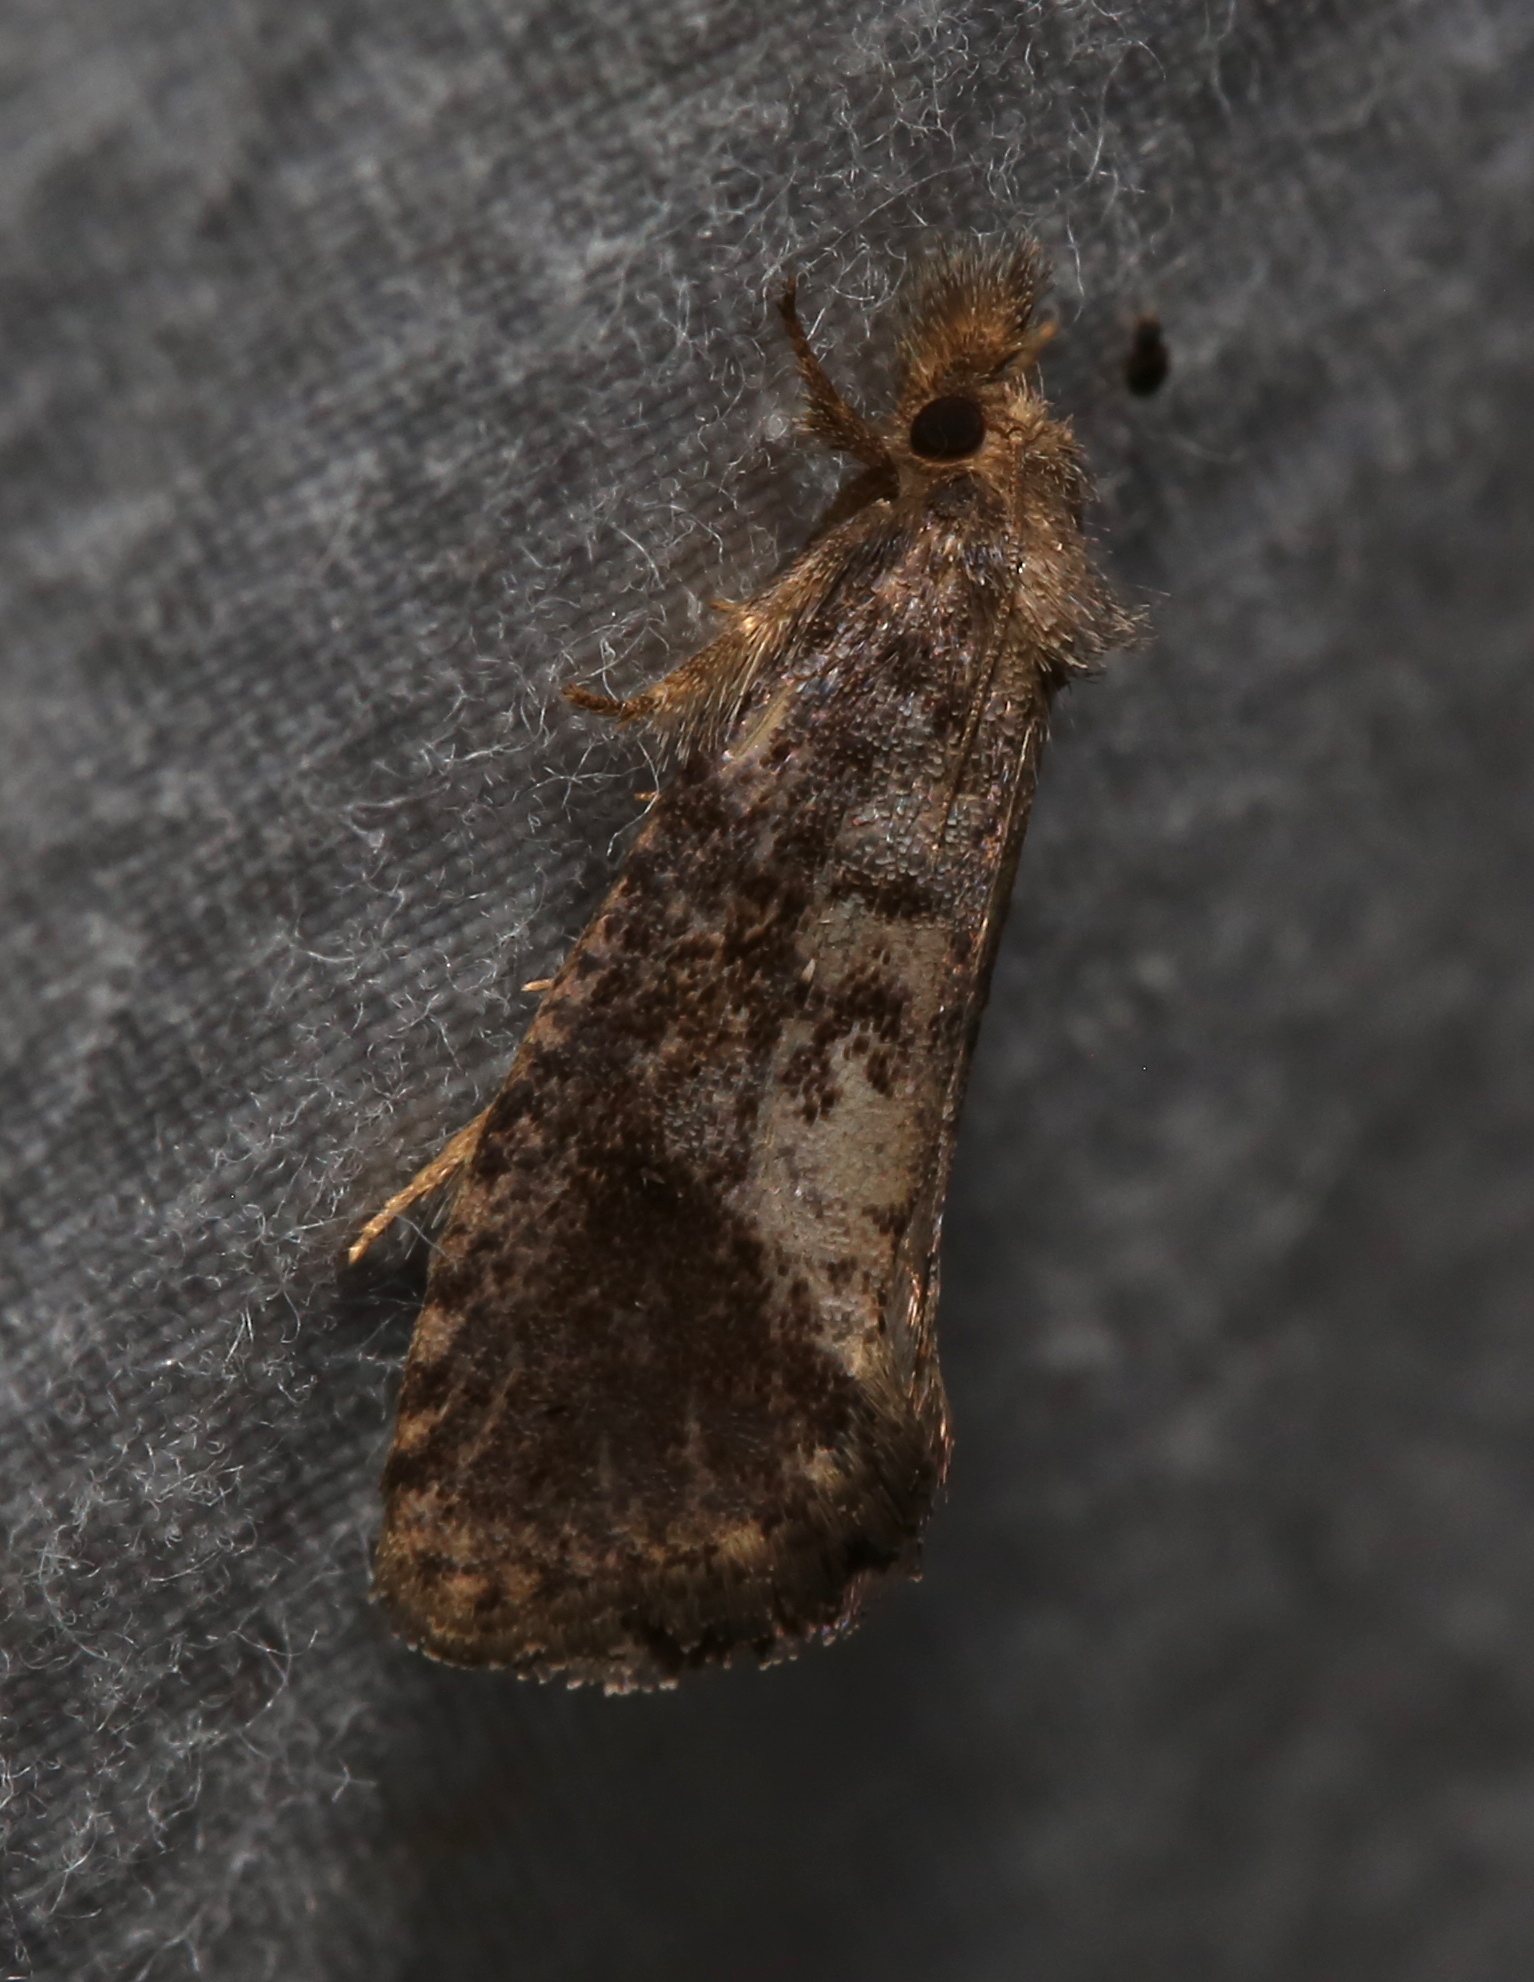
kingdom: Animalia
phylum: Arthropoda
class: Insecta
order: Lepidoptera
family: Tineidae
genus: Acrolophus
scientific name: Acrolophus texanella
